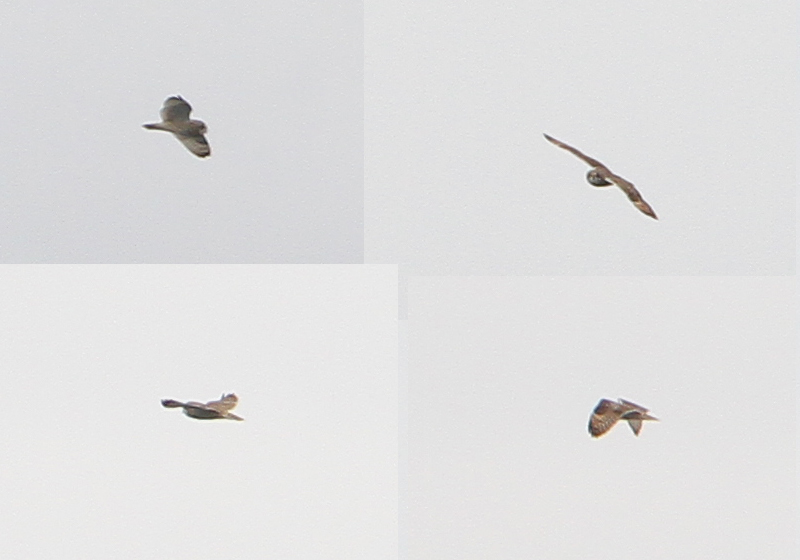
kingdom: Animalia
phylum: Chordata
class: Aves
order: Strigiformes
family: Strigidae
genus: Asio
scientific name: Asio flammeus
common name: Short-eared owl
